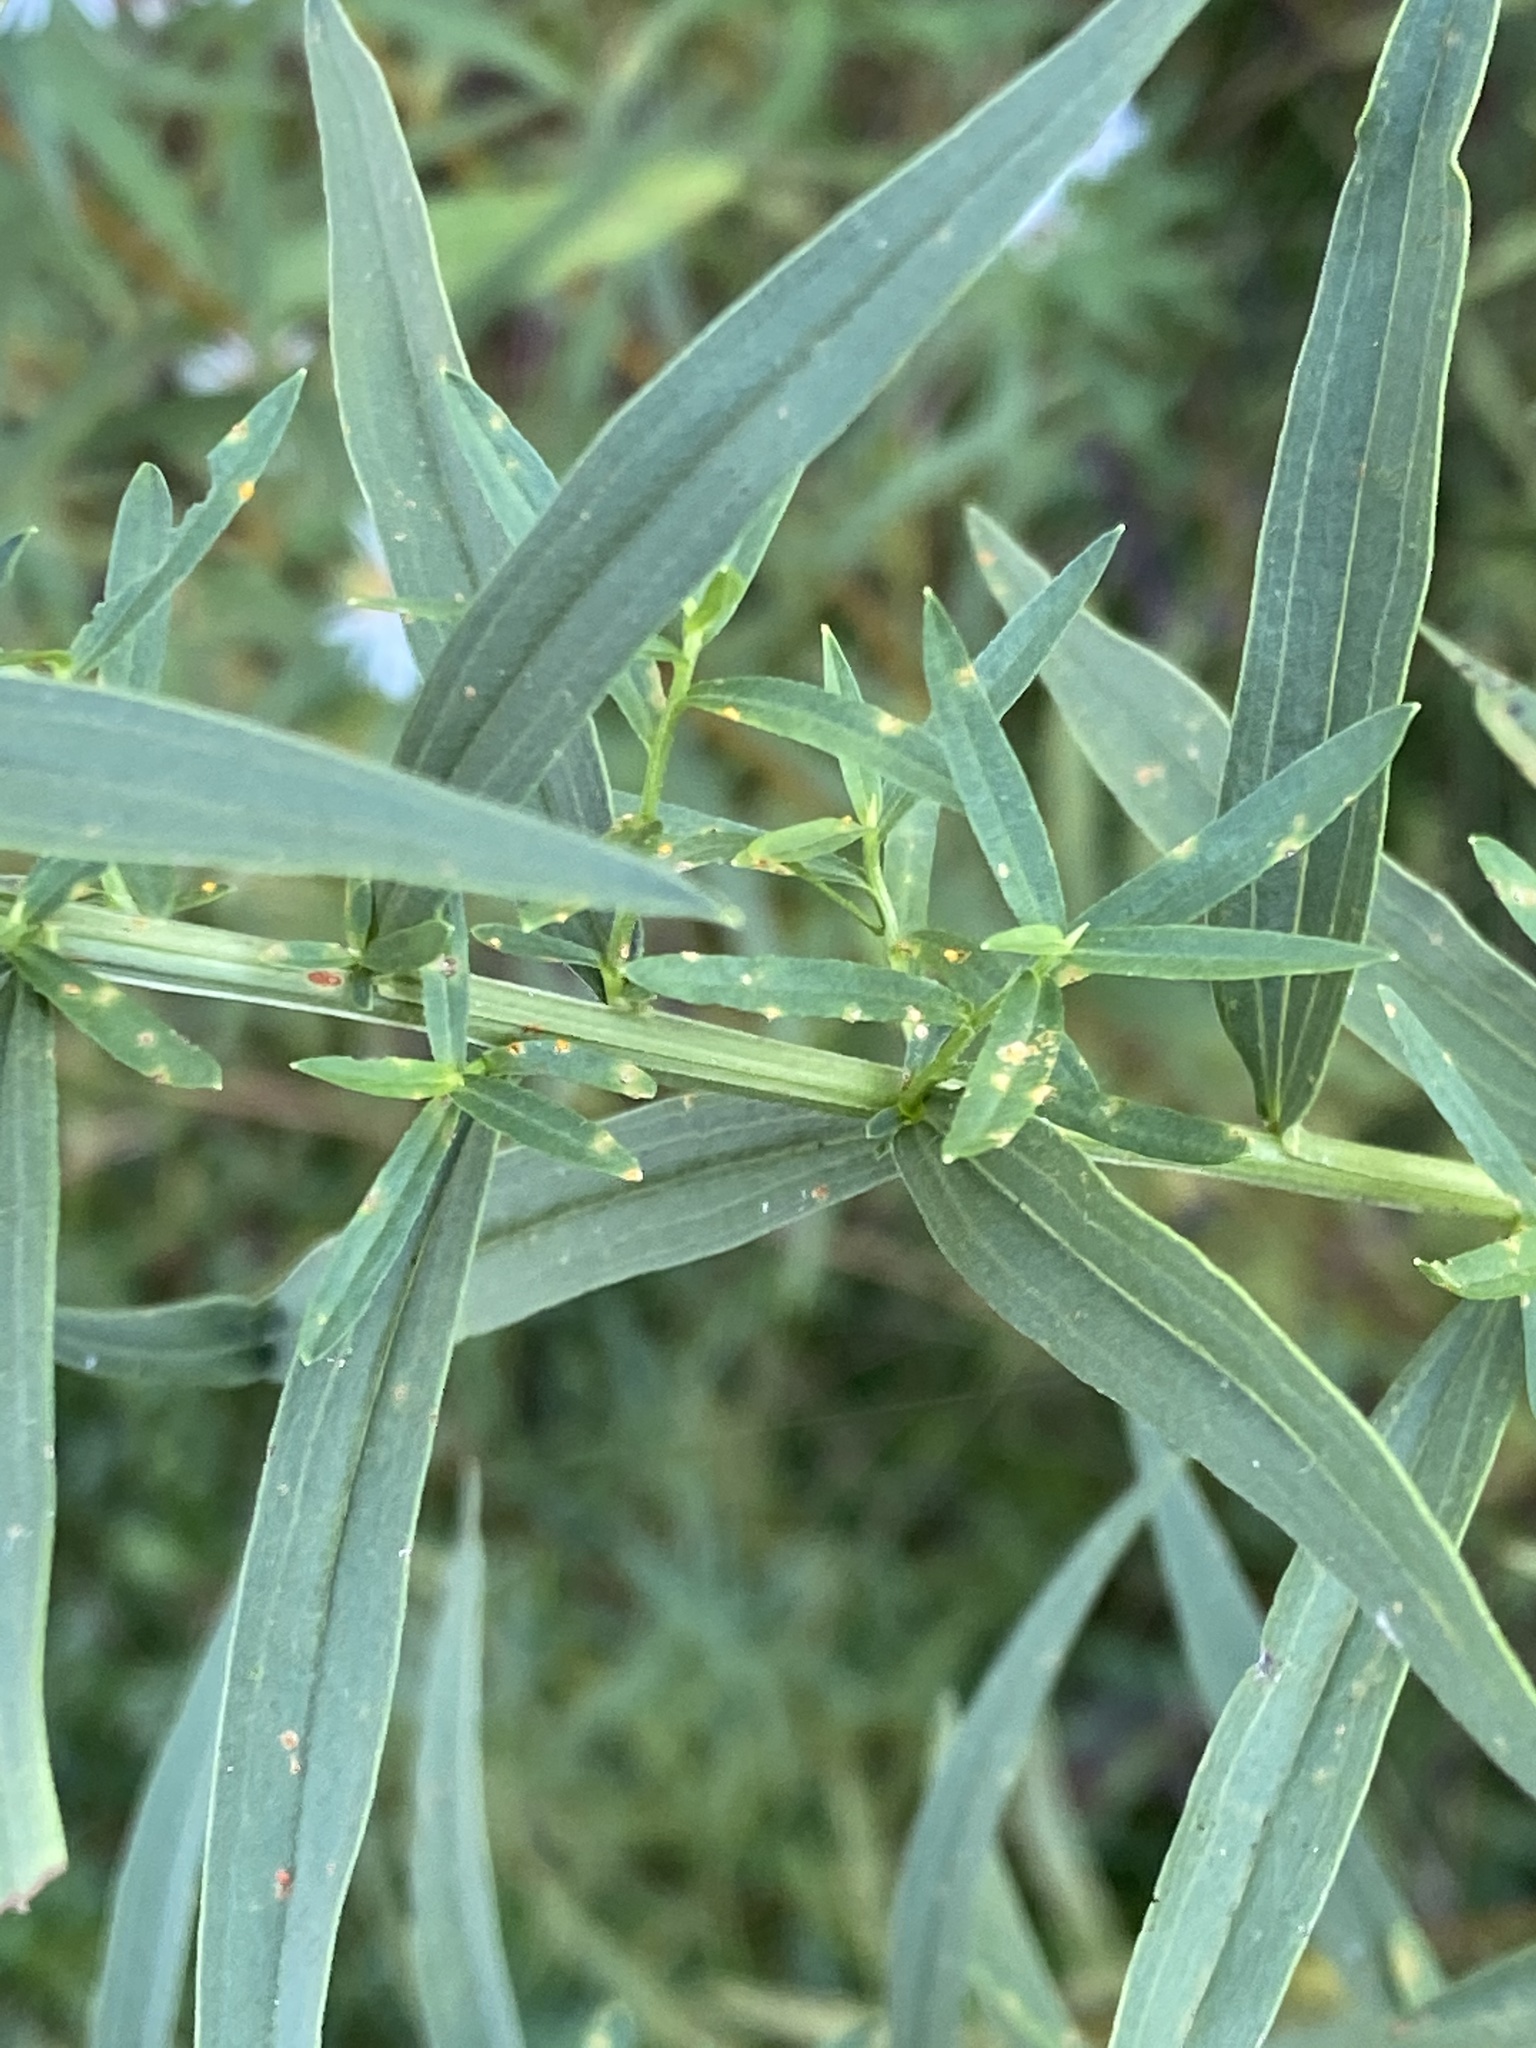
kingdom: Plantae
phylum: Tracheophyta
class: Magnoliopsida
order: Asterales
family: Asteraceae
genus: Euthamia
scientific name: Euthamia graminifolia
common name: Common goldentop
